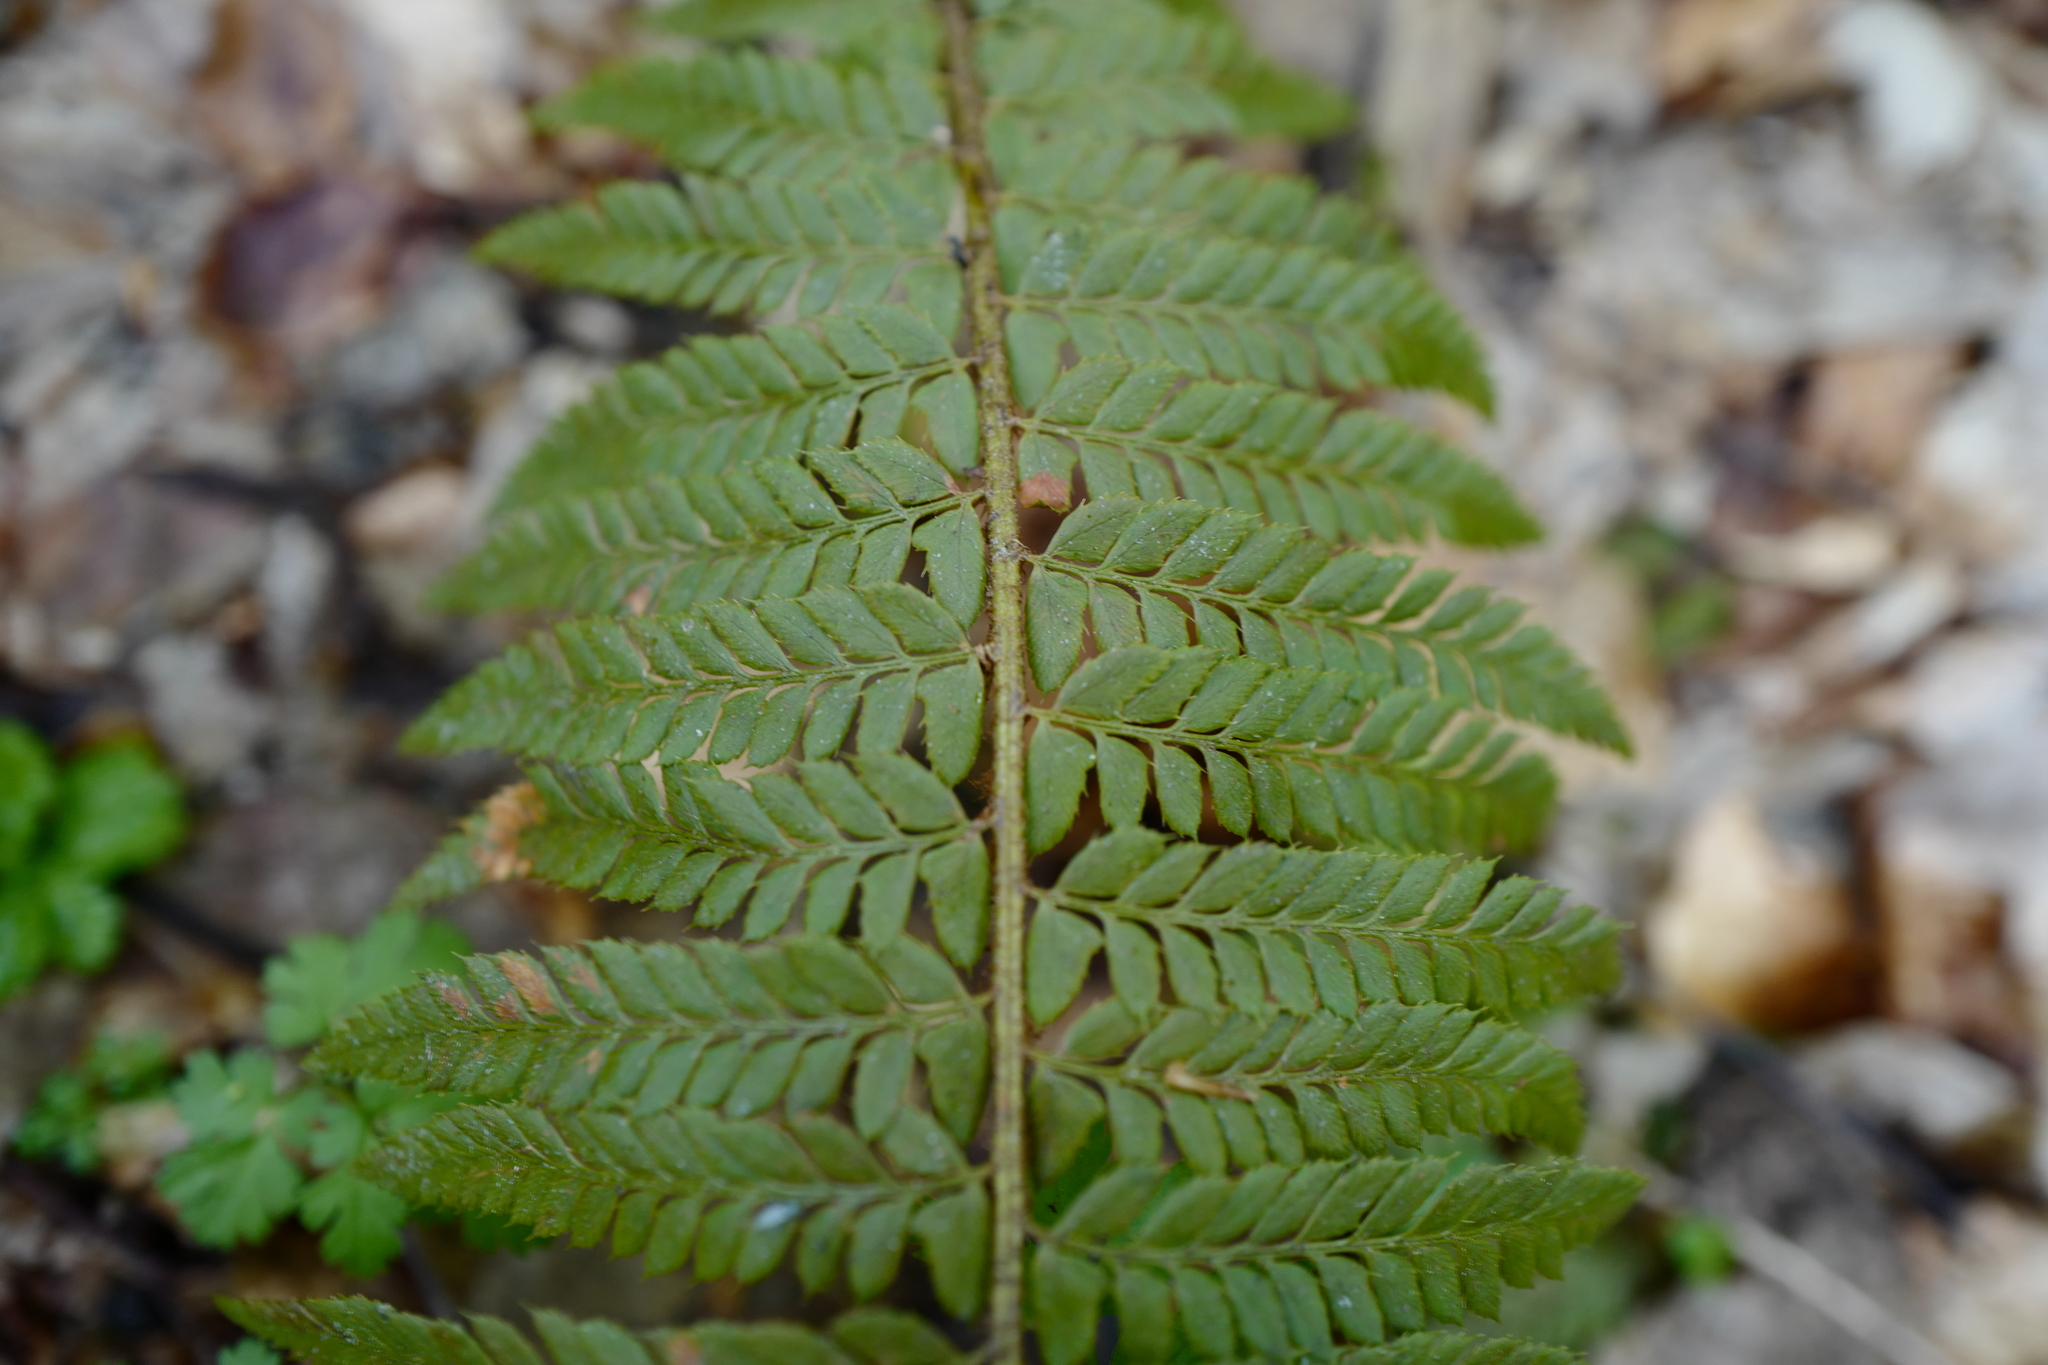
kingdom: Plantae
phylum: Tracheophyta
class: Polypodiopsida
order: Polypodiales
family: Dryopteridaceae
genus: Polystichum
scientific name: Polystichum aculeatum
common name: Hard shield-fern
